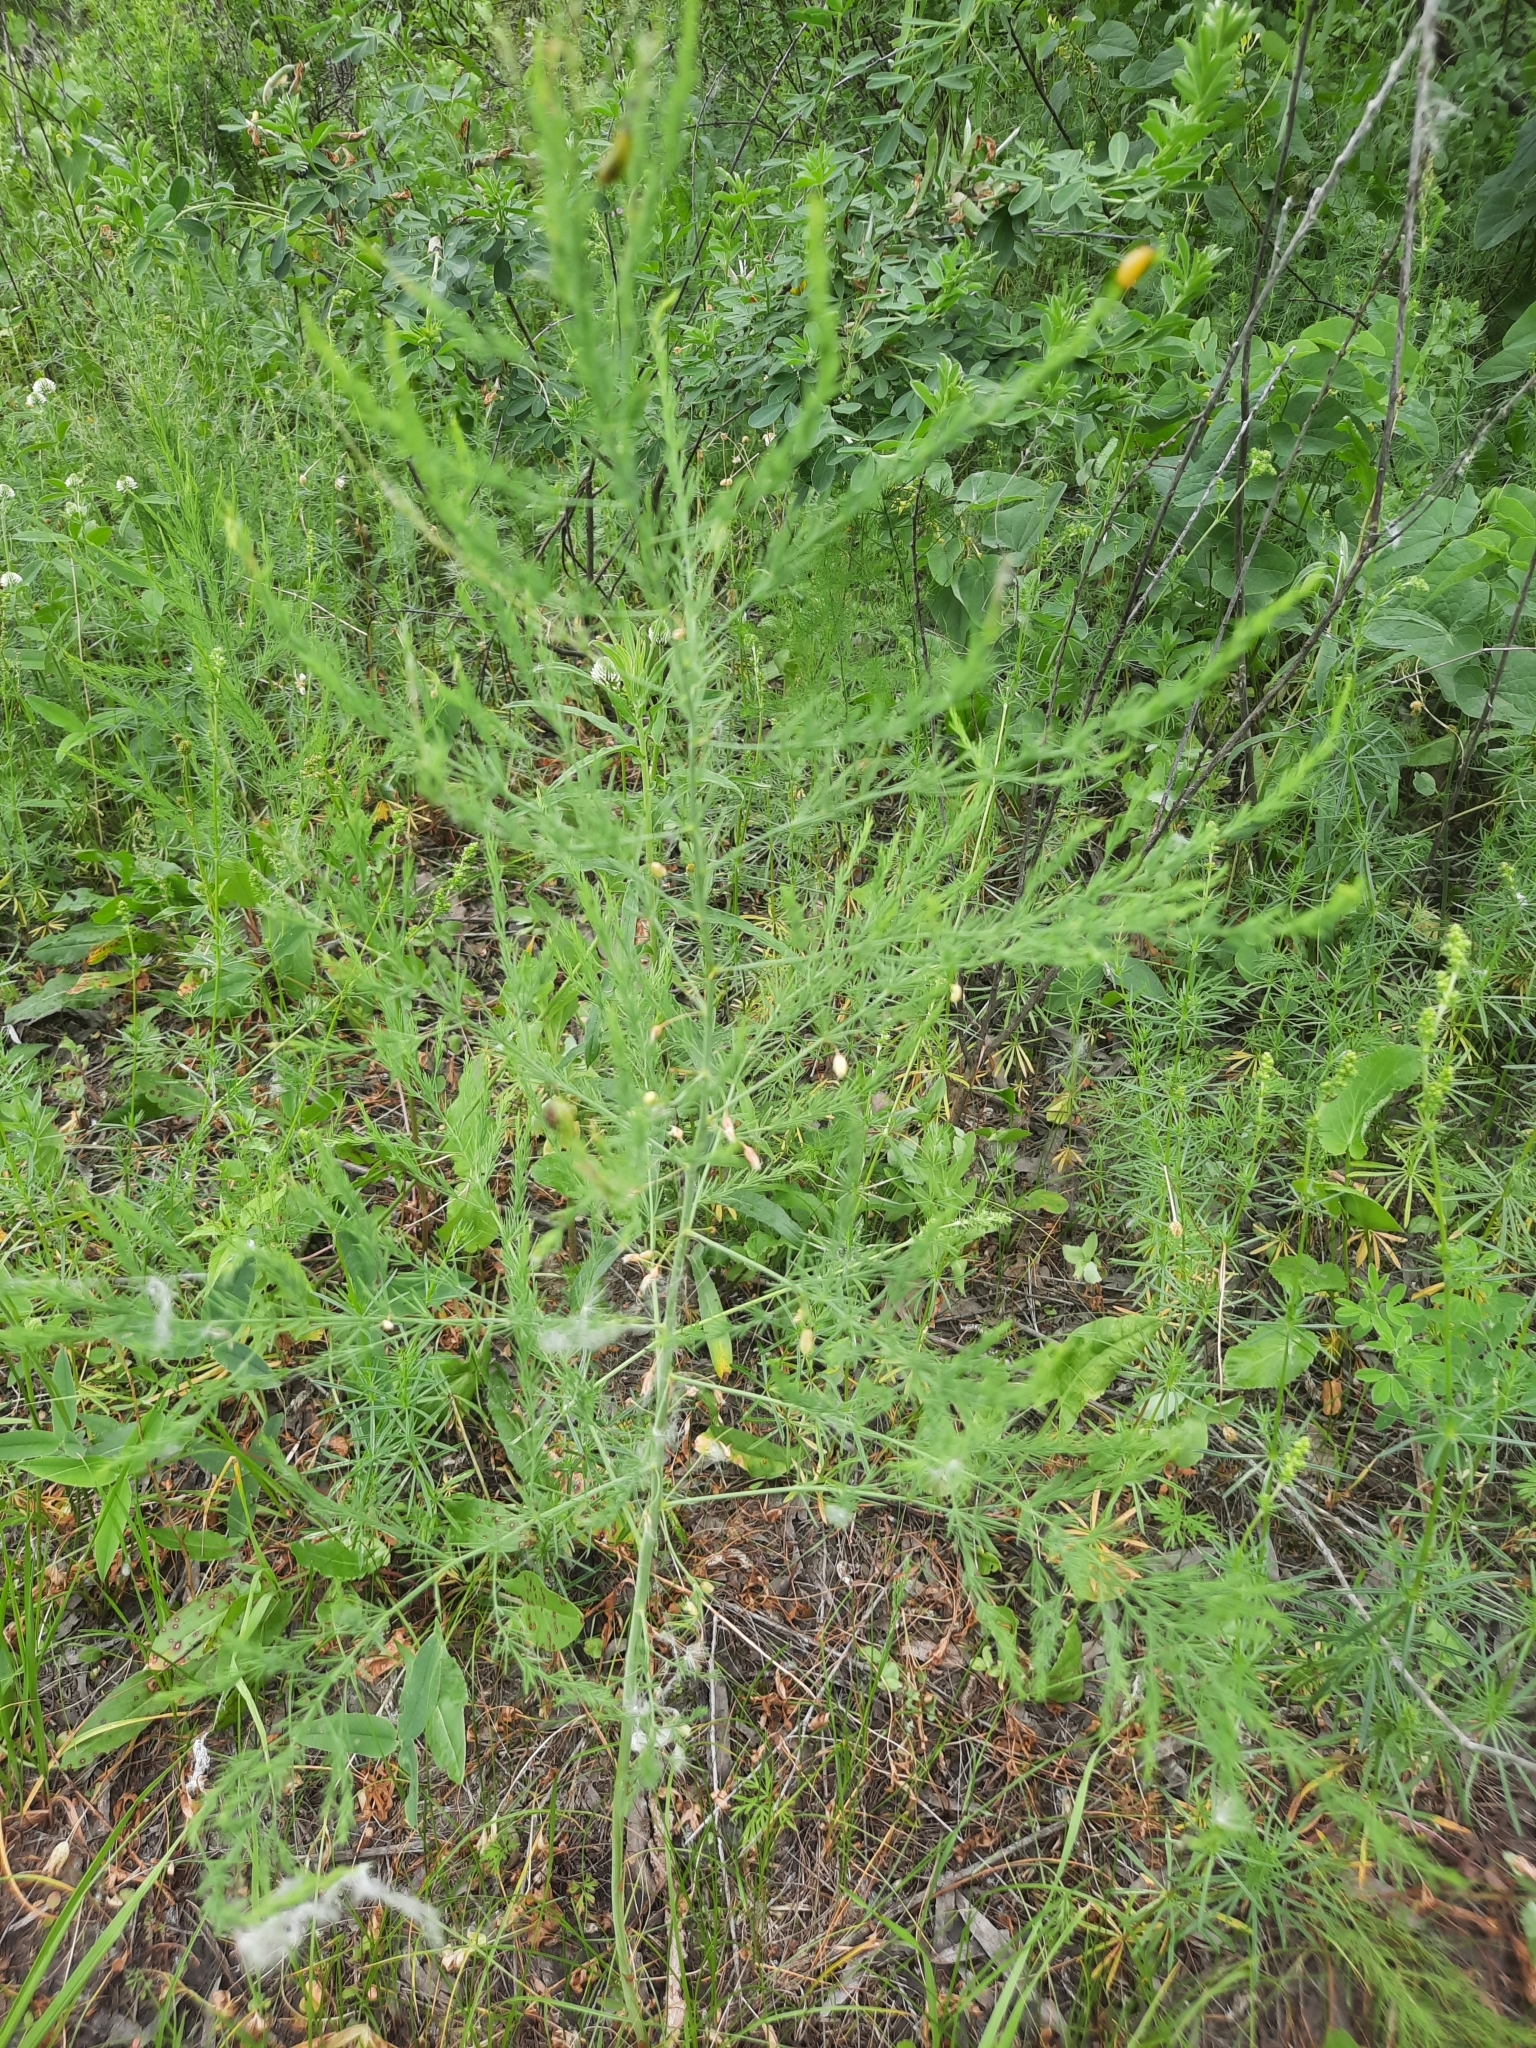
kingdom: Plantae
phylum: Tracheophyta
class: Liliopsida
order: Asparagales
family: Asparagaceae
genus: Asparagus
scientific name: Asparagus officinalis
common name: Garden asparagus
